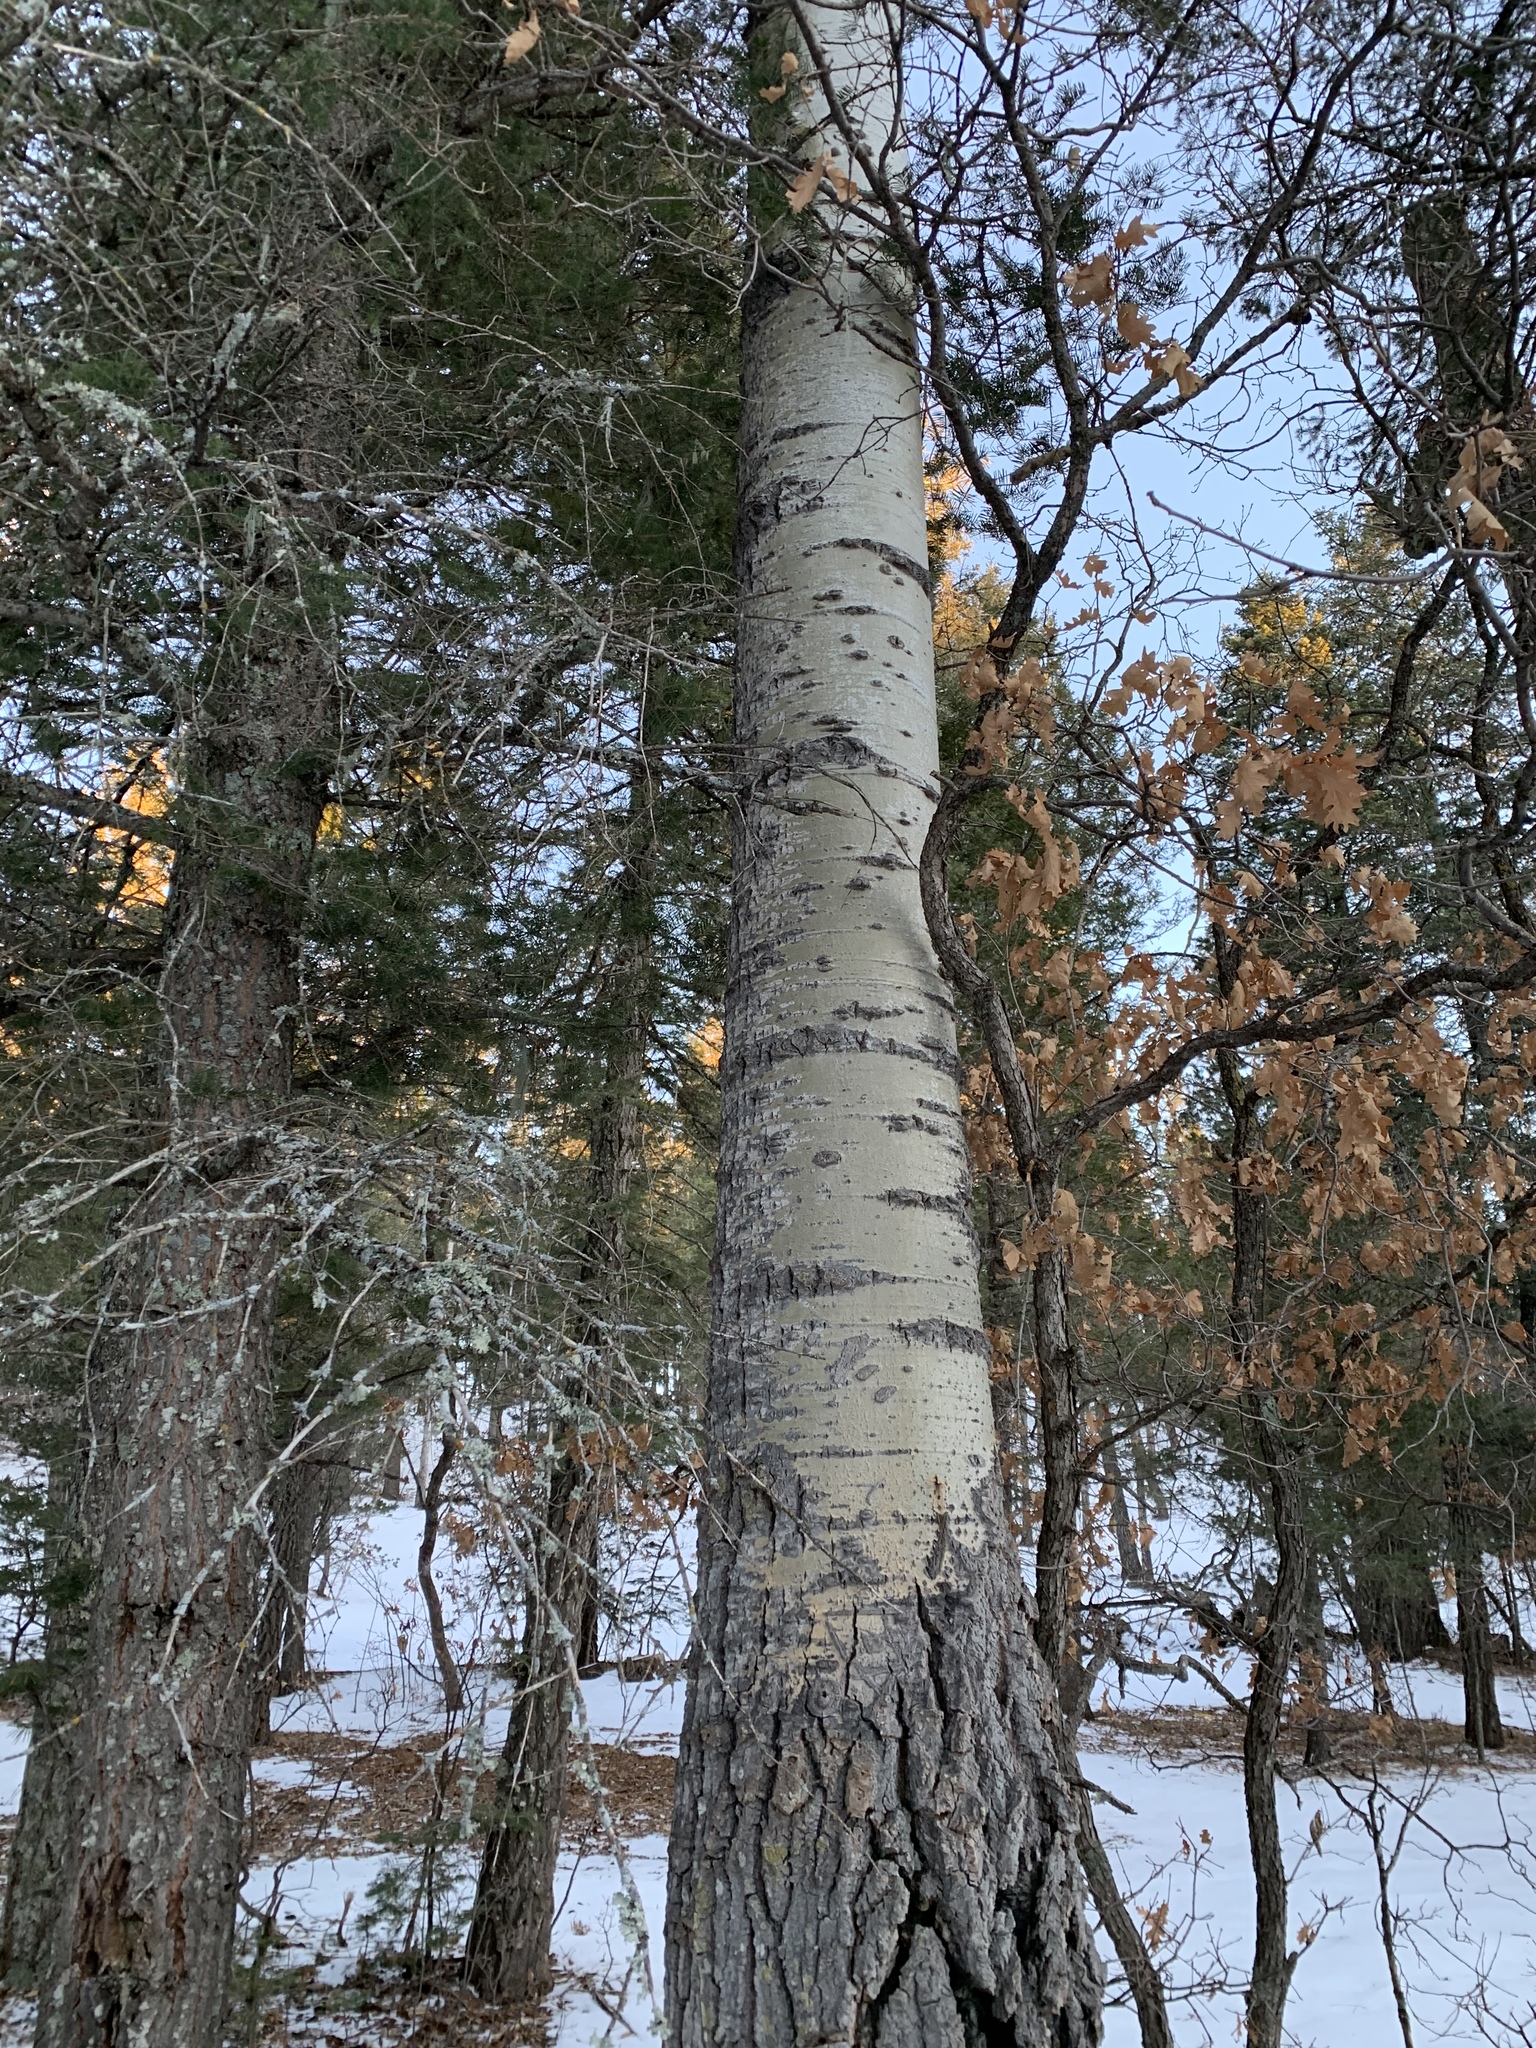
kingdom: Plantae
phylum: Tracheophyta
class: Magnoliopsida
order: Malpighiales
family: Salicaceae
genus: Populus
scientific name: Populus tremuloides
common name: Quaking aspen
